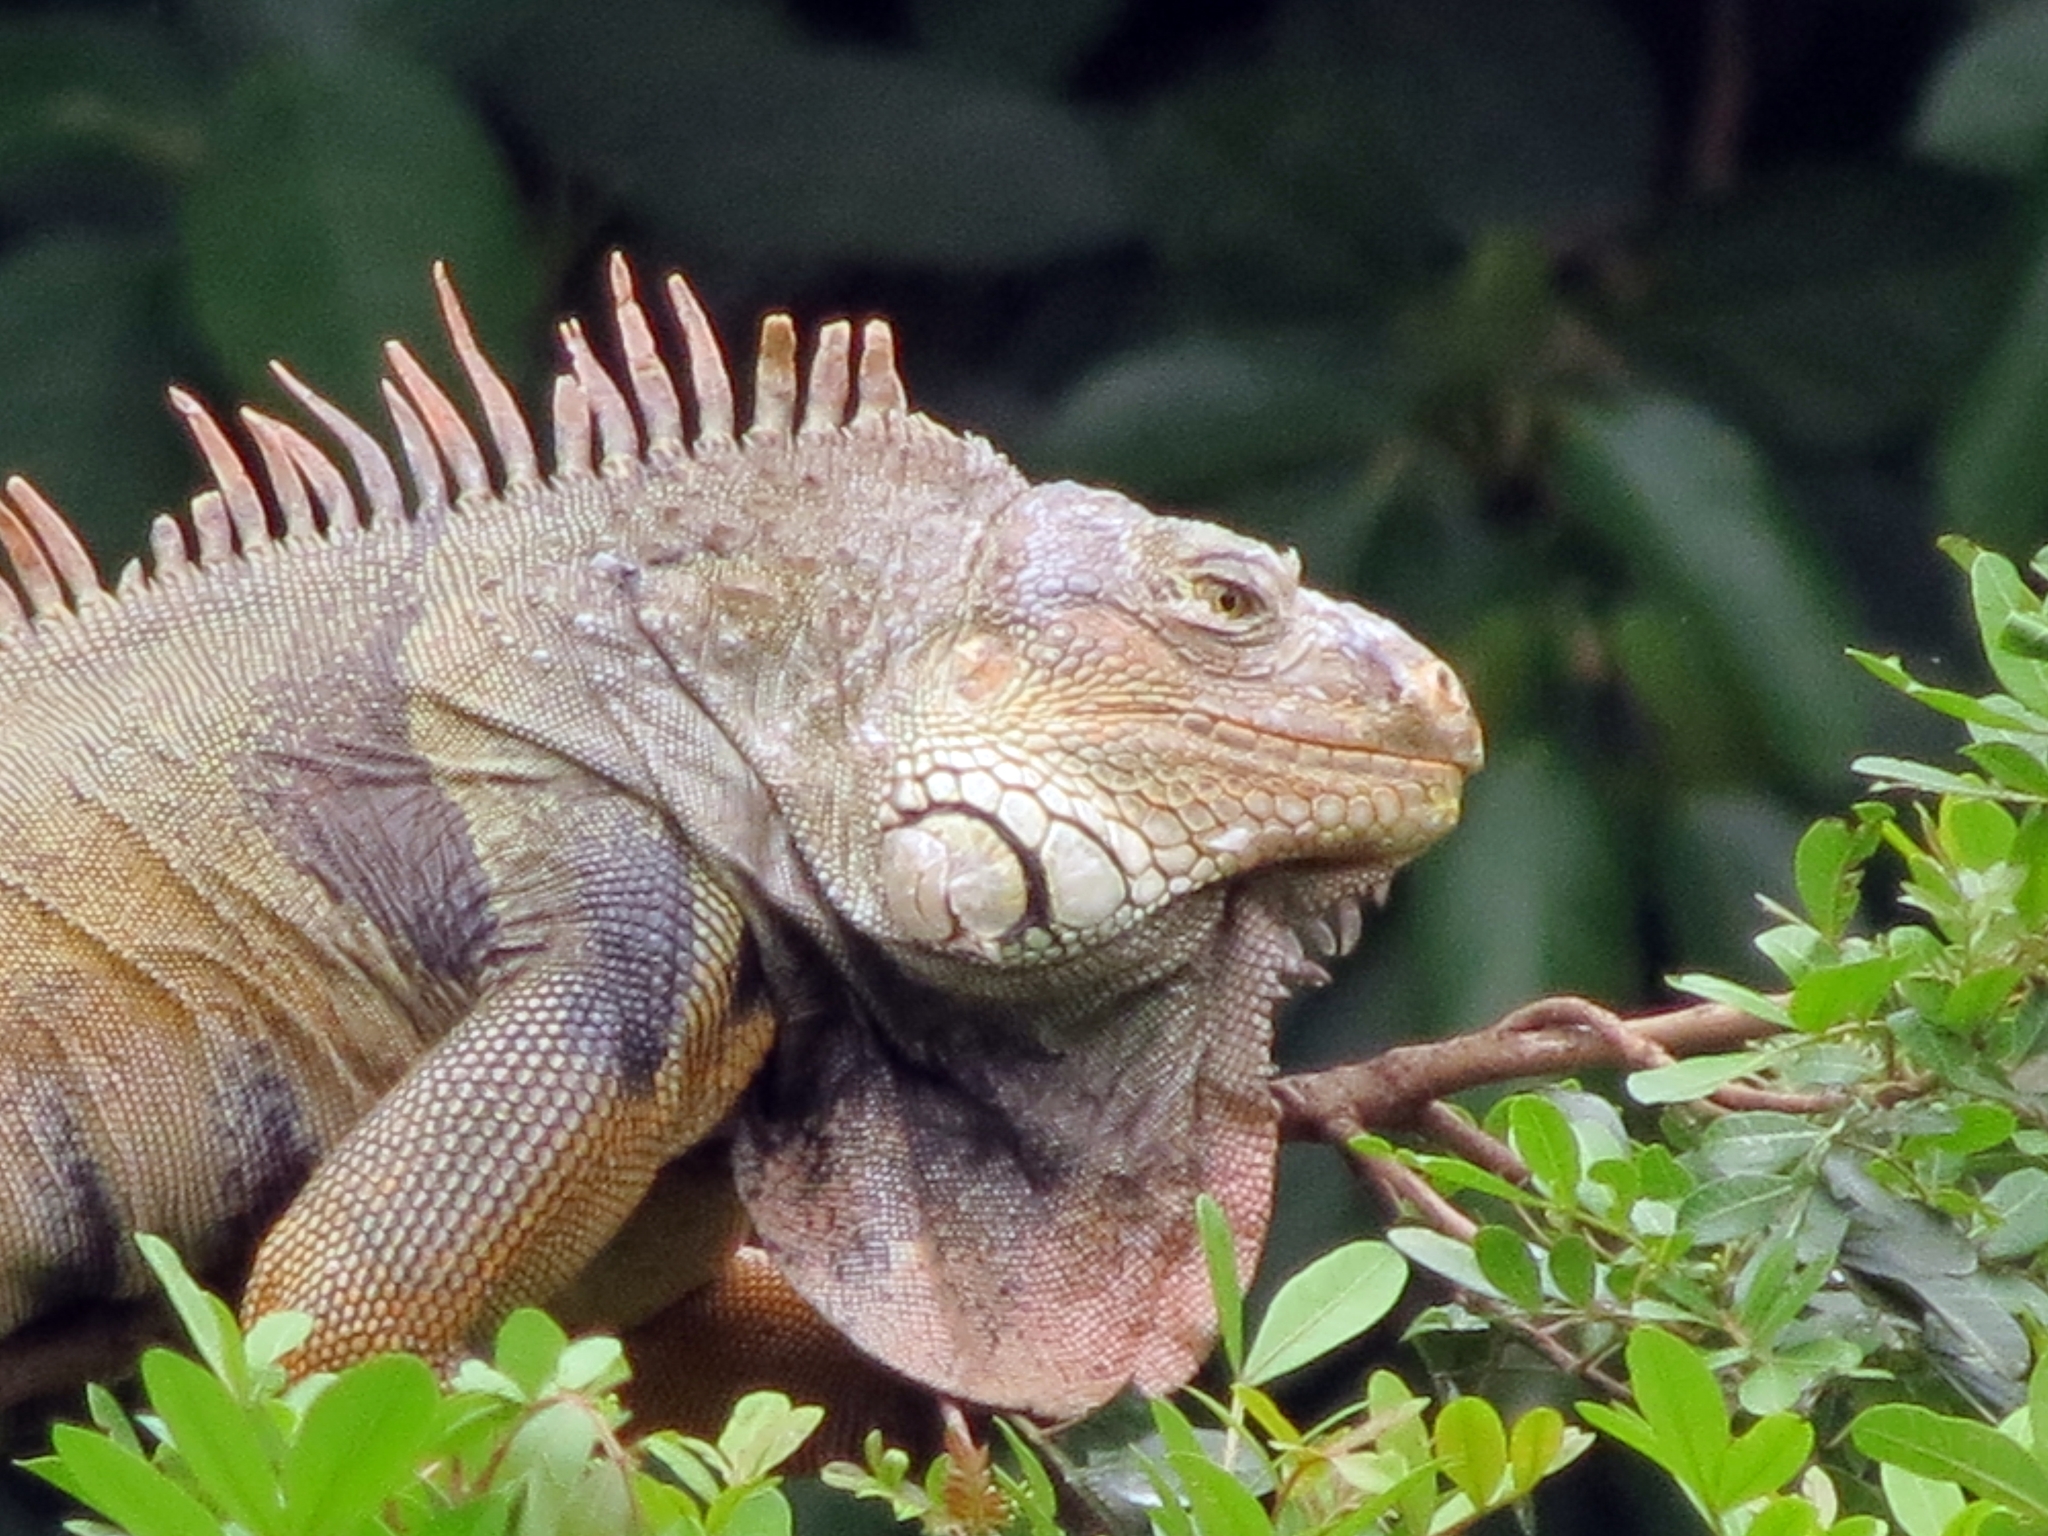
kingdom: Animalia
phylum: Chordata
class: Squamata
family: Iguanidae
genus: Iguana
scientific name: Iguana iguana
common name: Green iguana
